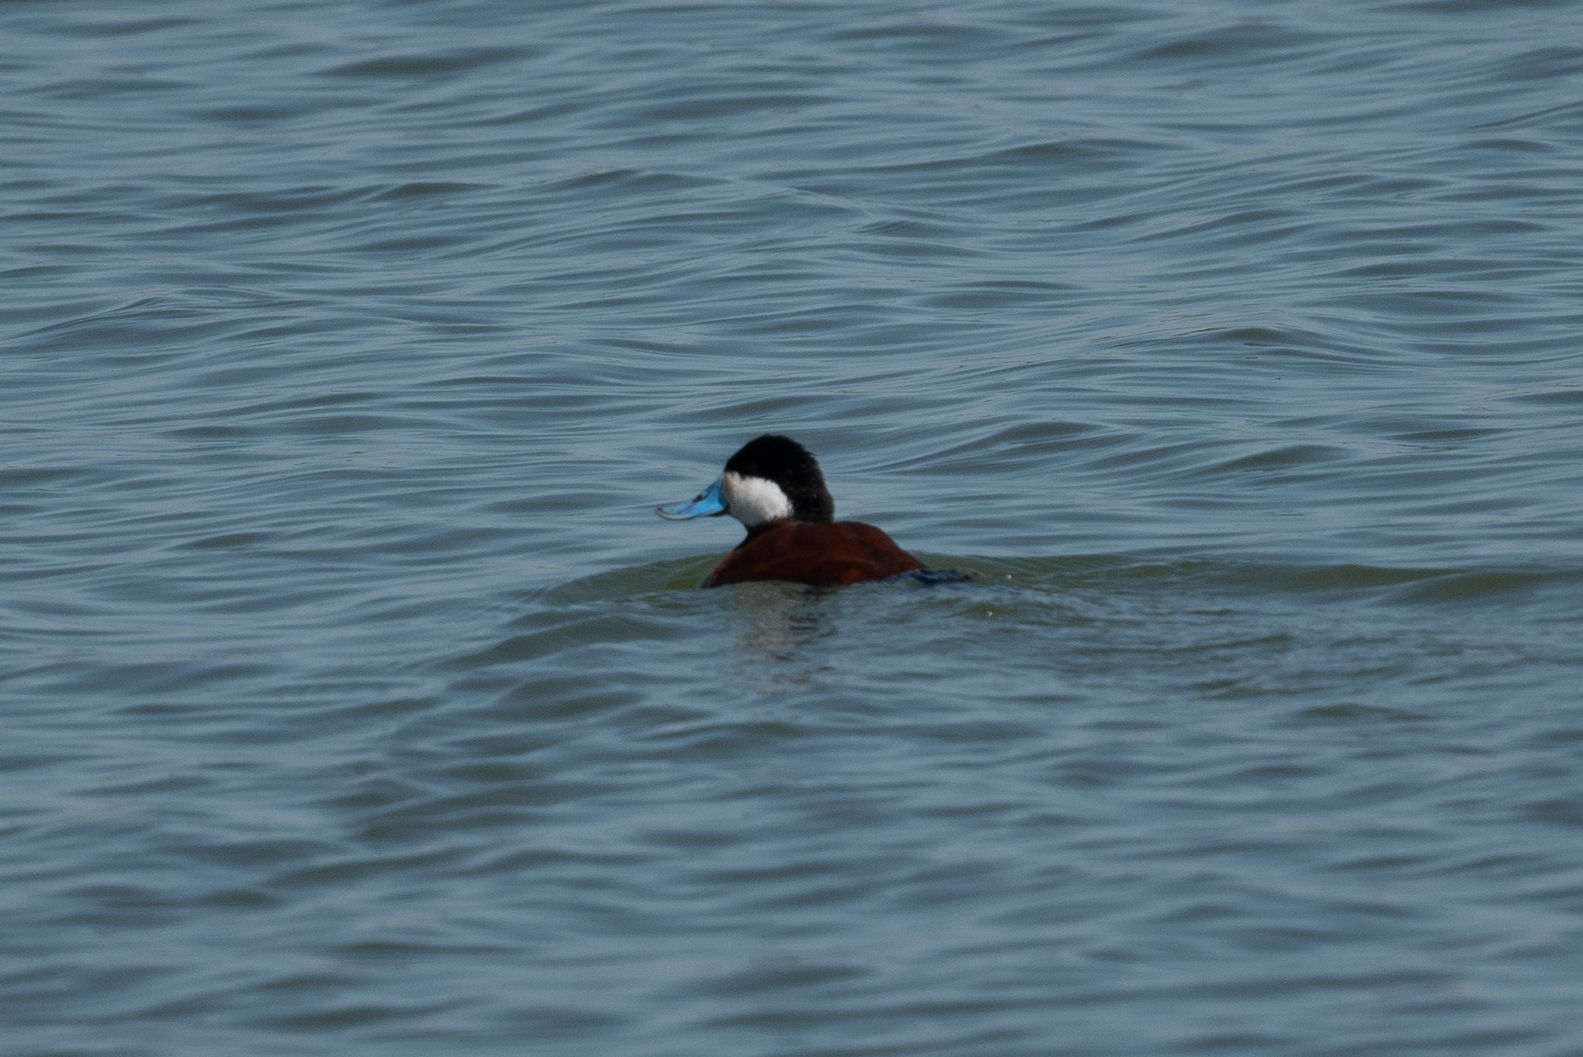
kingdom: Animalia
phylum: Chordata
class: Aves
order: Anseriformes
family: Anatidae
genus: Oxyura
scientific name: Oxyura jamaicensis
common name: Ruddy duck
